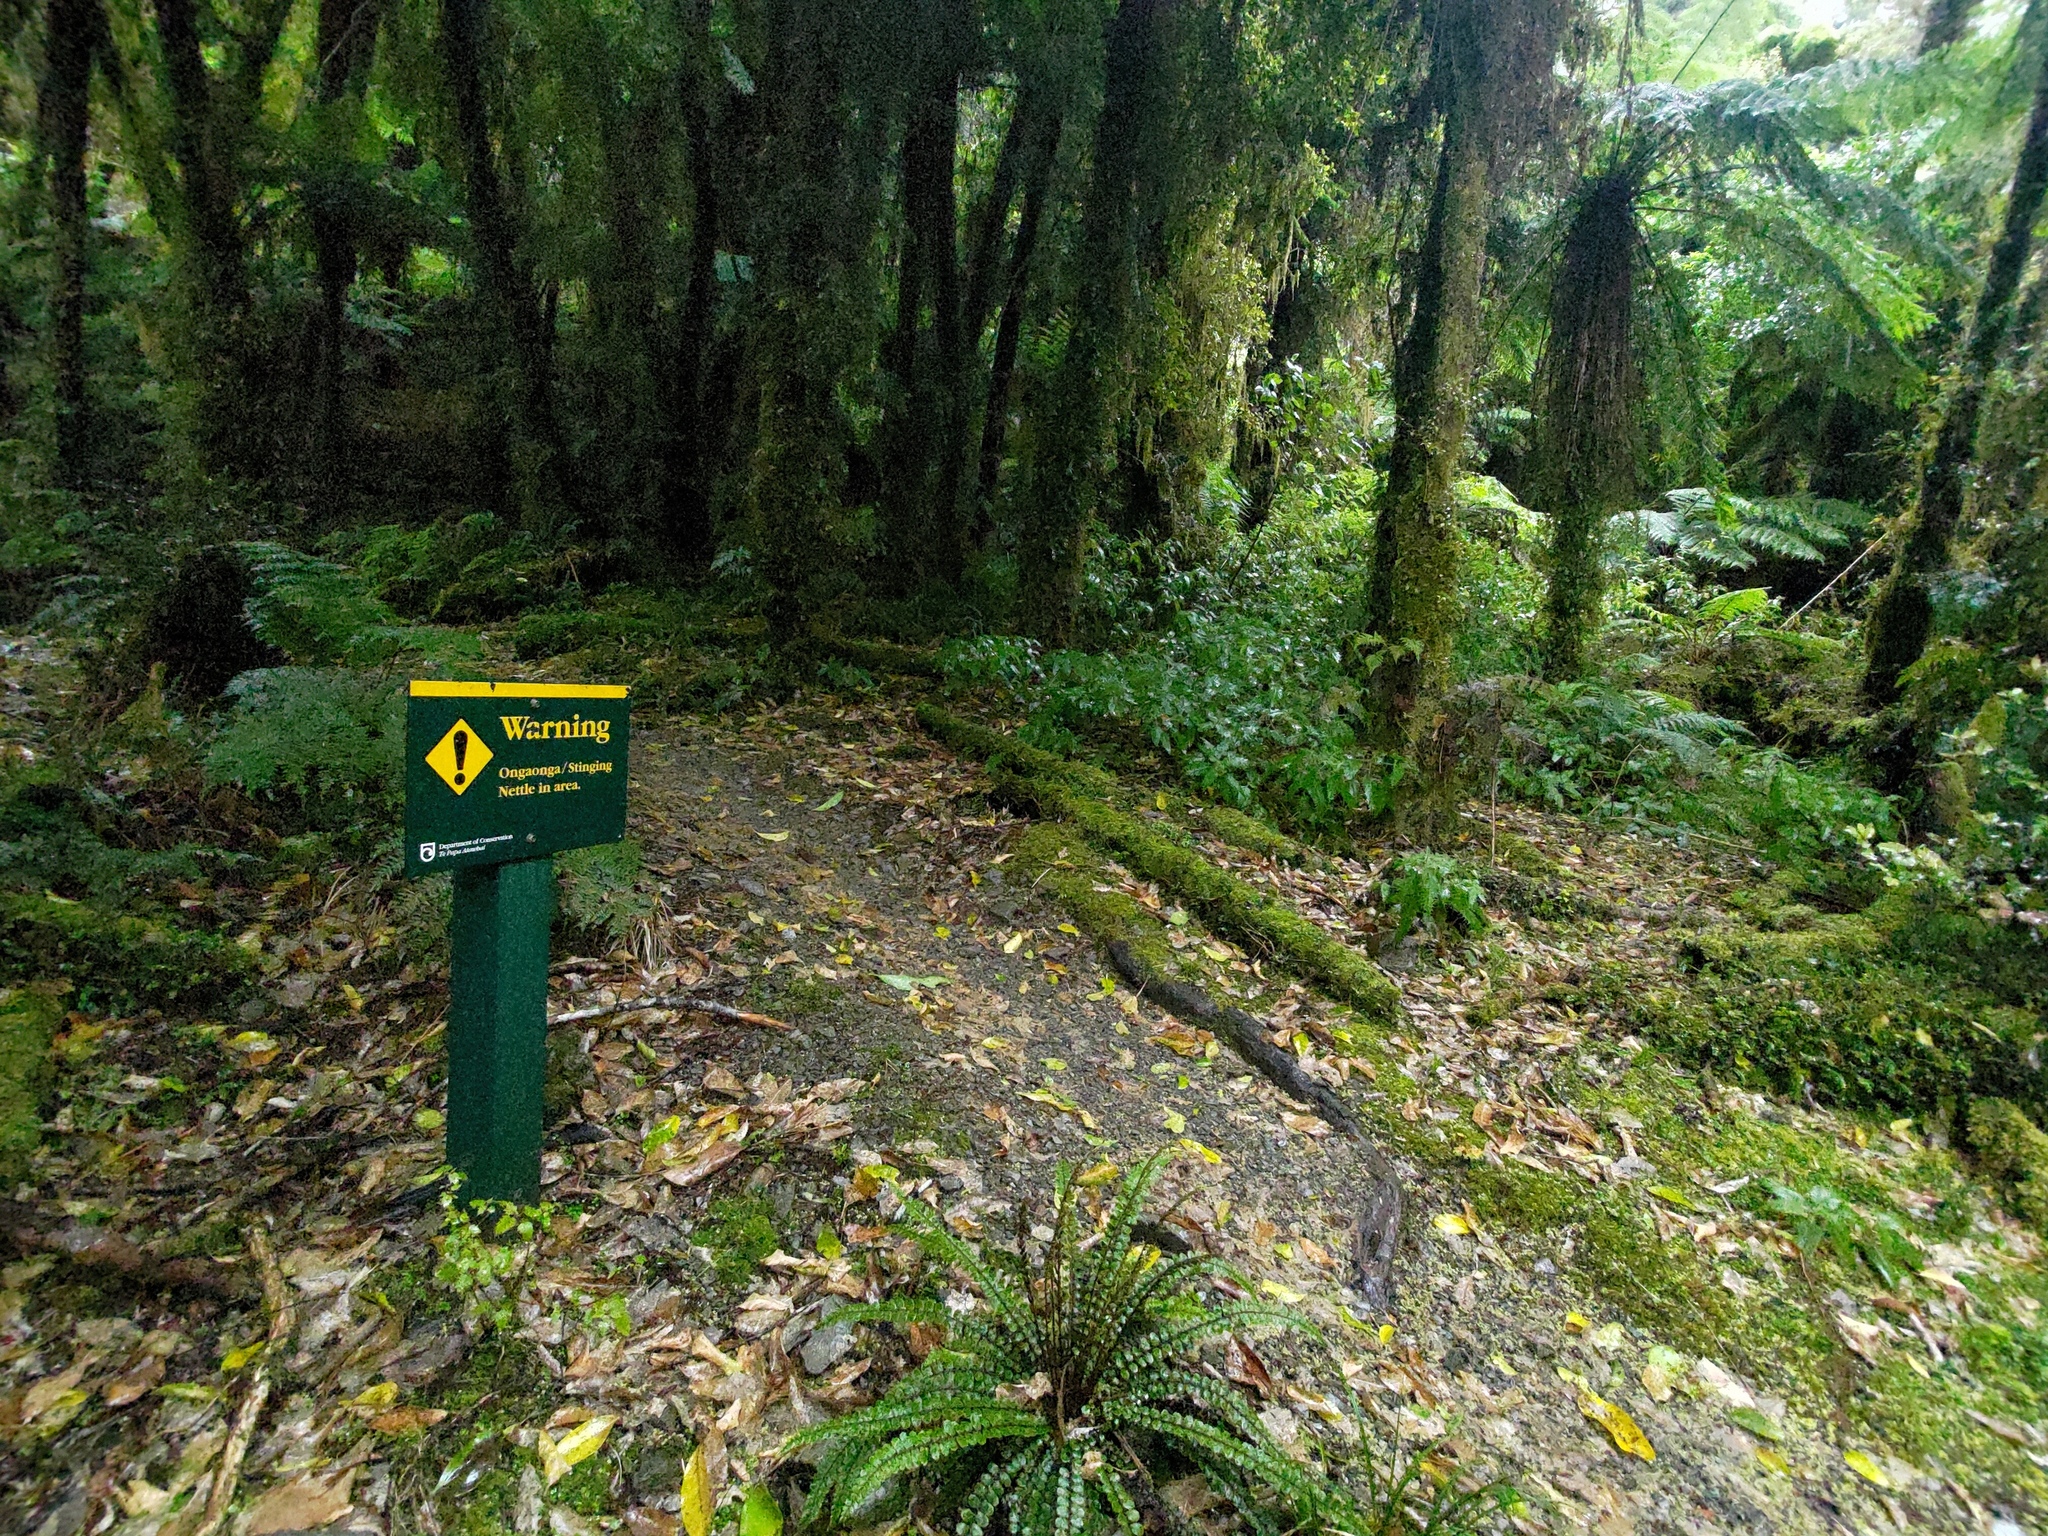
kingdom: Plantae
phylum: Tracheophyta
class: Magnoliopsida
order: Rosales
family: Urticaceae
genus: Urtica
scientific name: Urtica ferox
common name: Tree nettle
